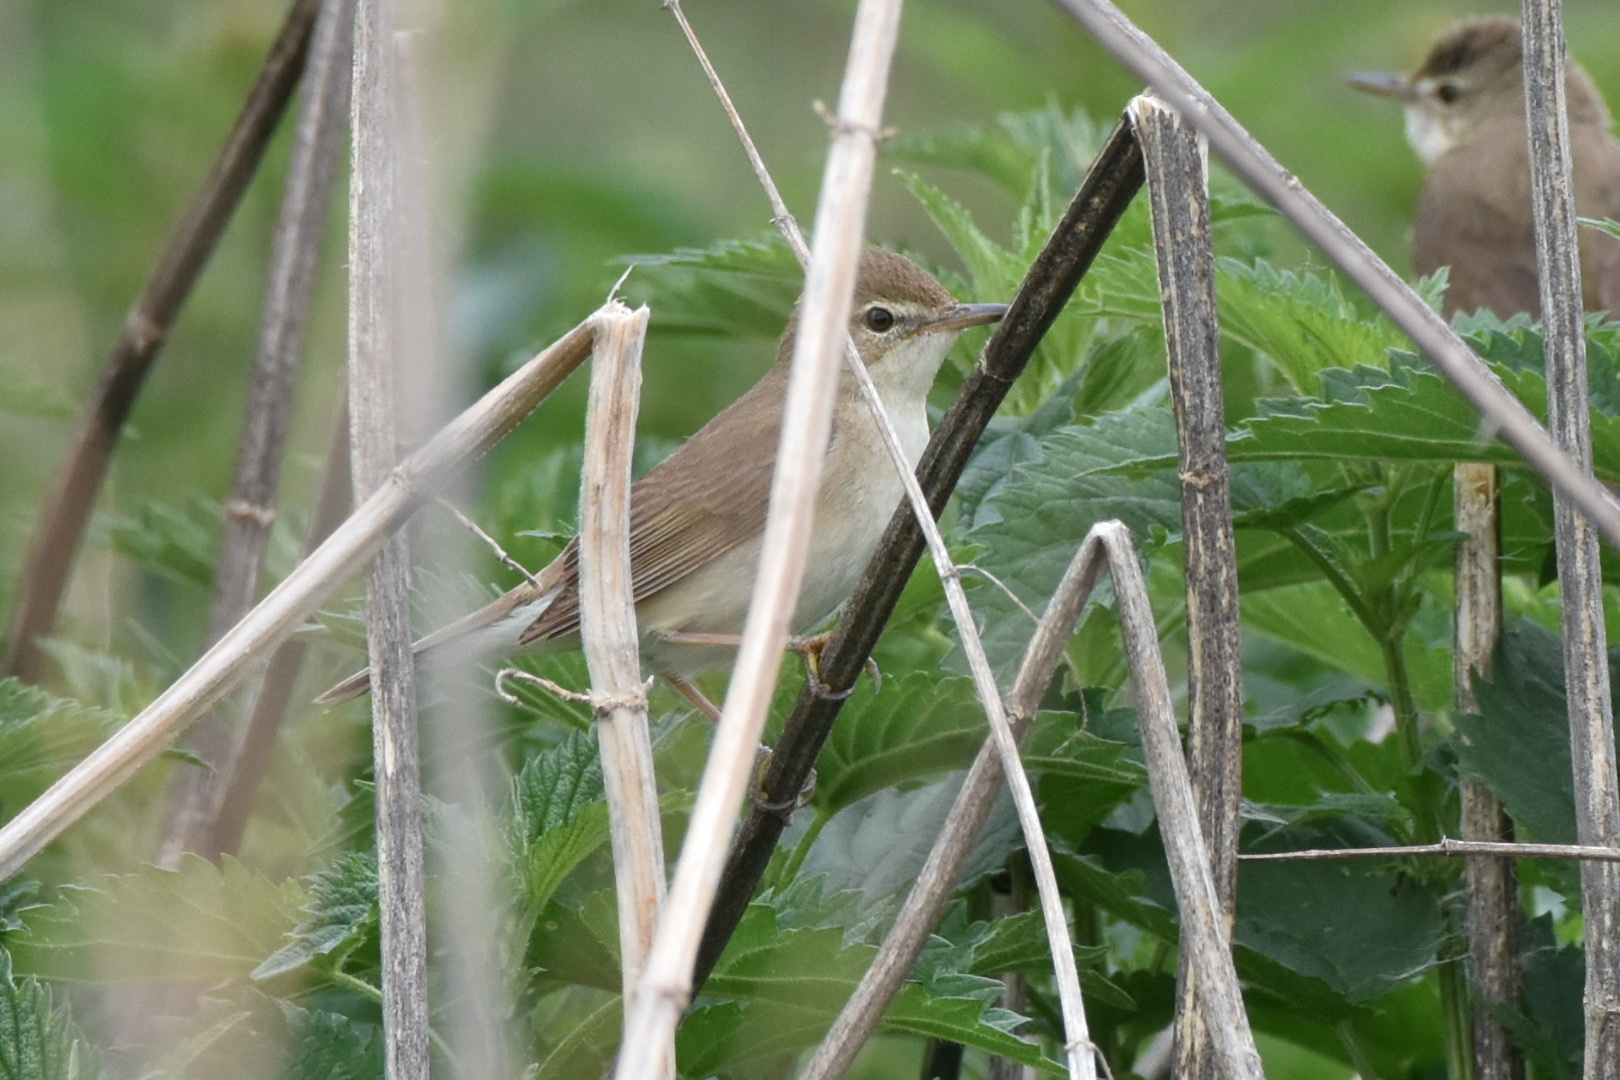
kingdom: Animalia
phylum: Chordata
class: Aves
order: Passeriformes
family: Acrocephalidae
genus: Acrocephalus
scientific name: Acrocephalus dumetorum
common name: Blyth's reed warbler
